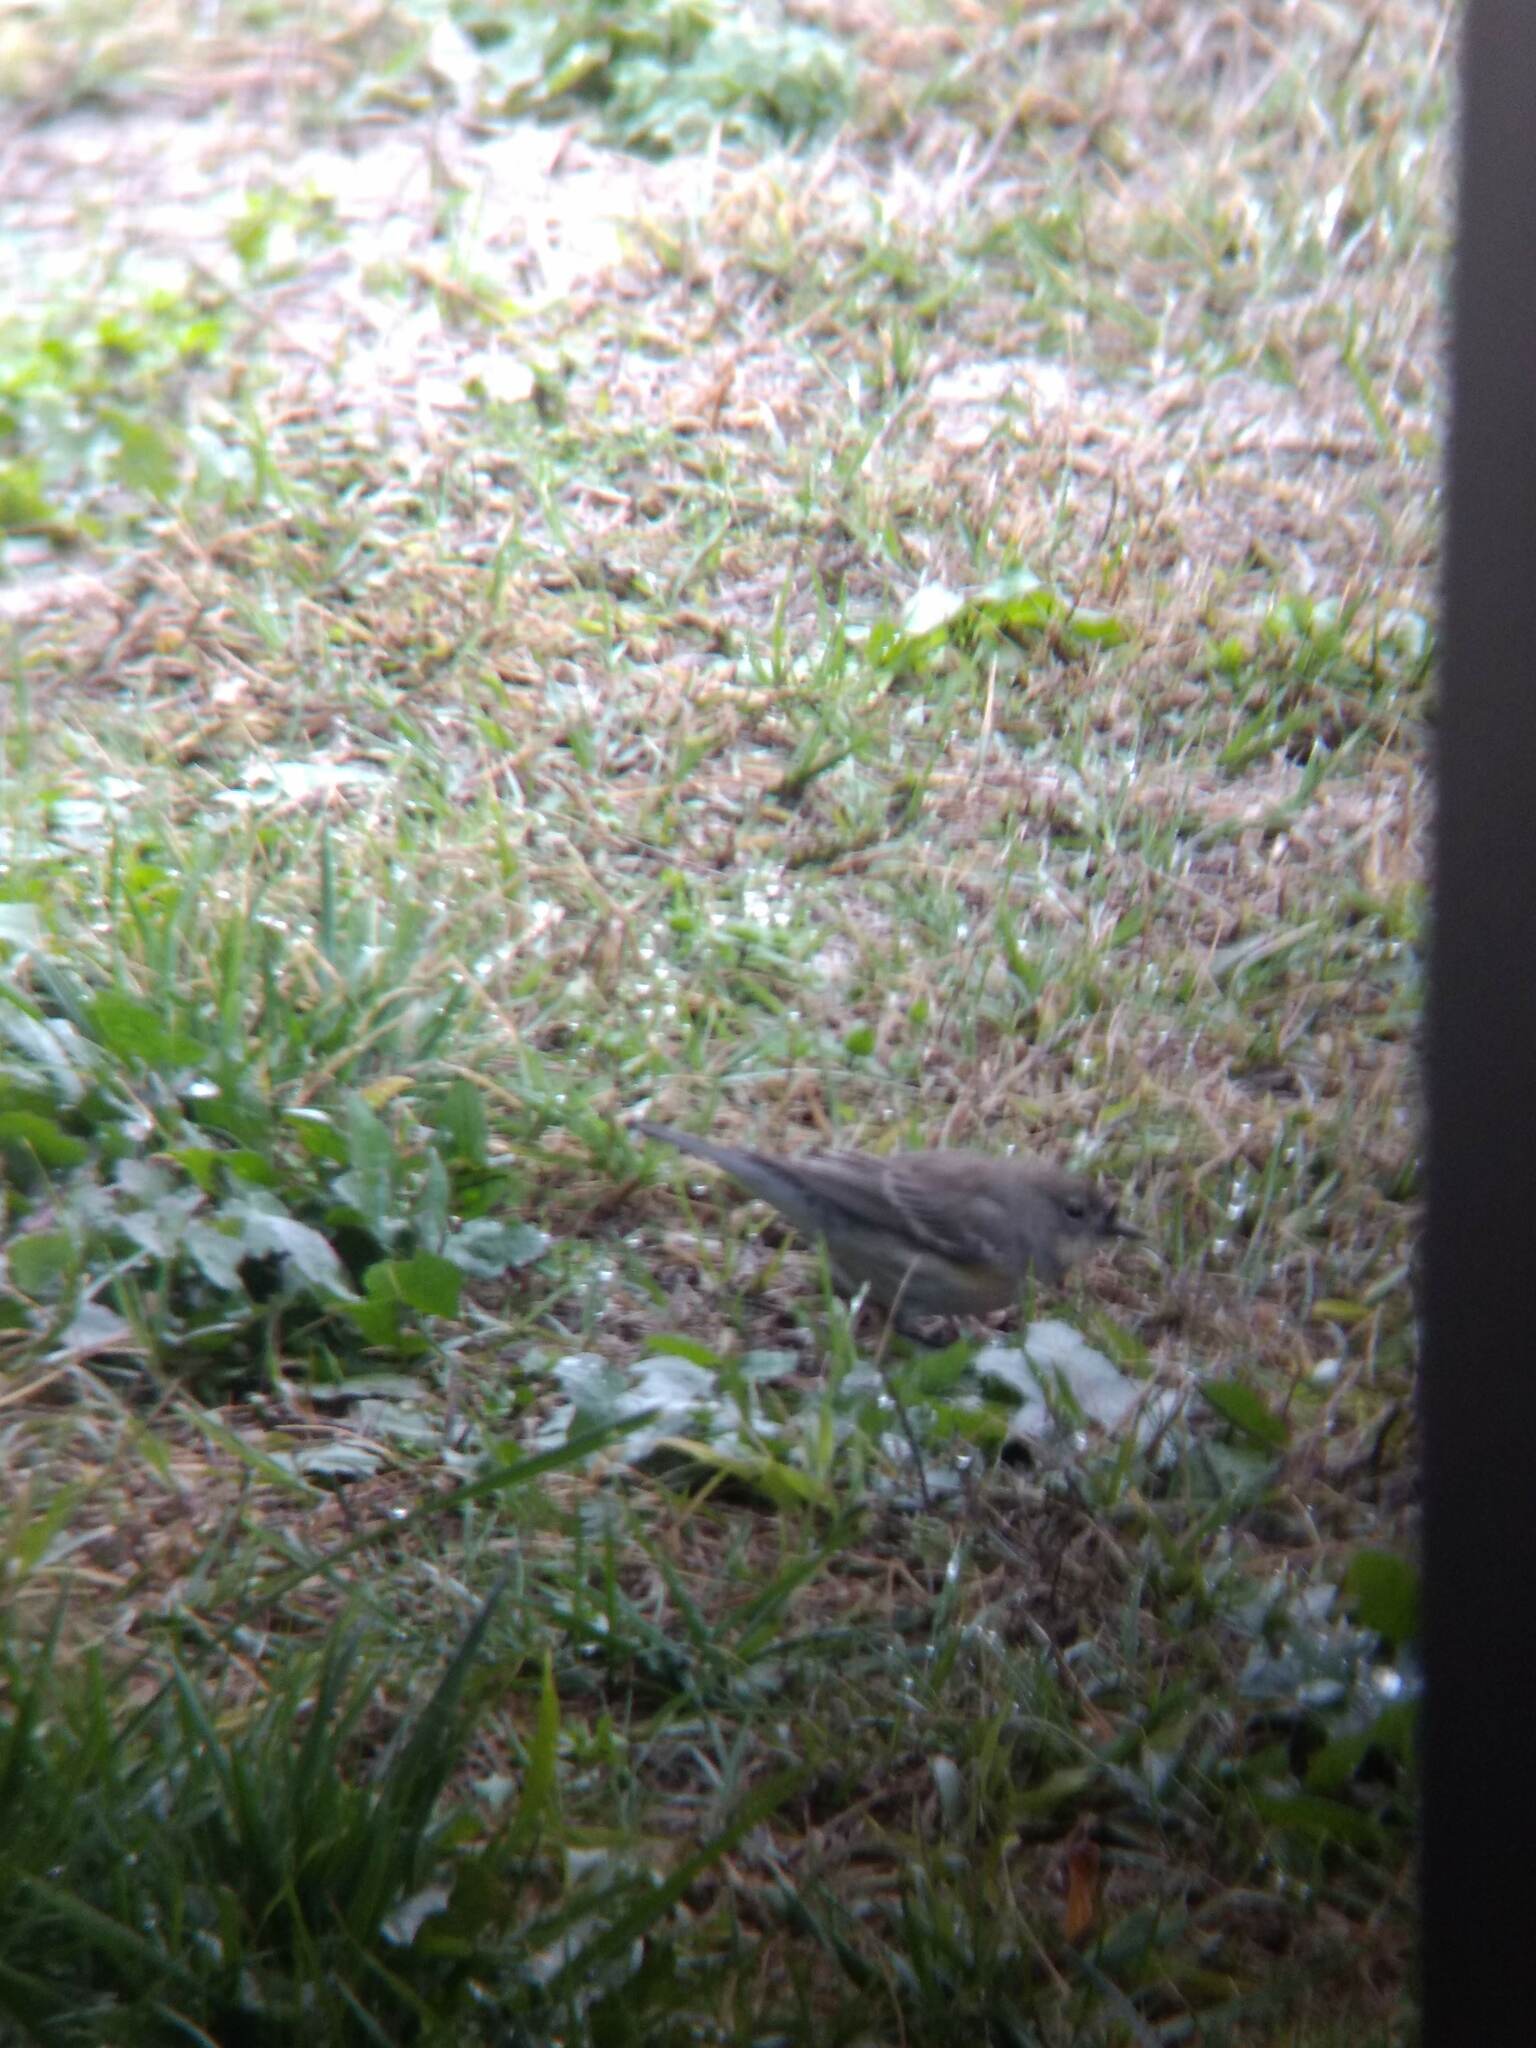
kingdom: Animalia
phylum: Chordata
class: Aves
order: Passeriformes
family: Parulidae
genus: Setophaga
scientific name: Setophaga coronata
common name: Myrtle warbler
